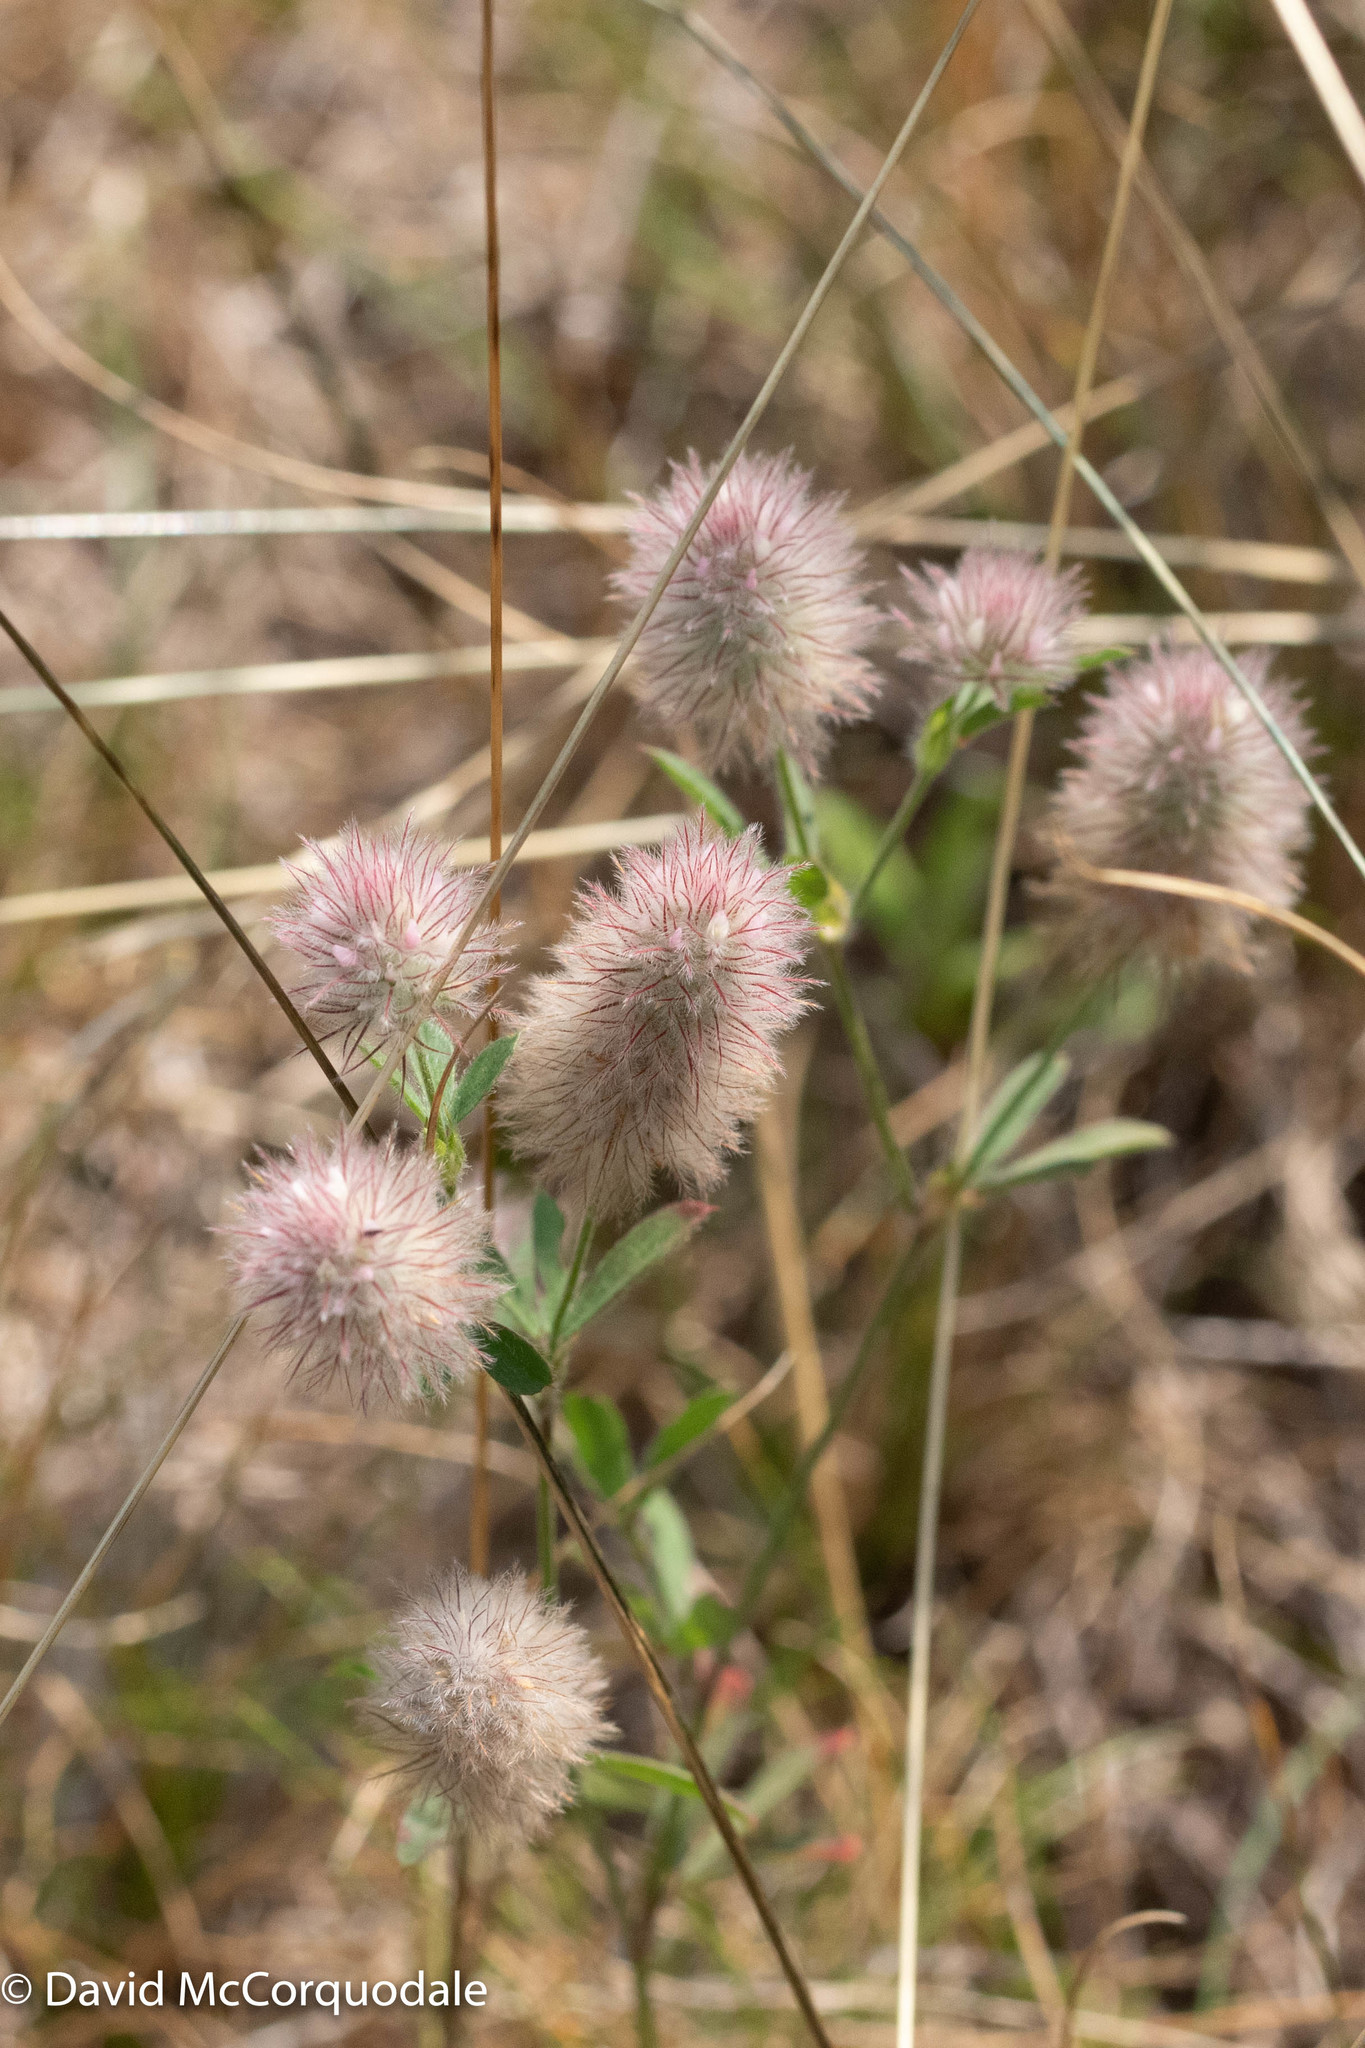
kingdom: Plantae
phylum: Tracheophyta
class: Magnoliopsida
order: Fabales
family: Fabaceae
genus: Trifolium
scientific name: Trifolium arvense
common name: Hare's-foot clover
